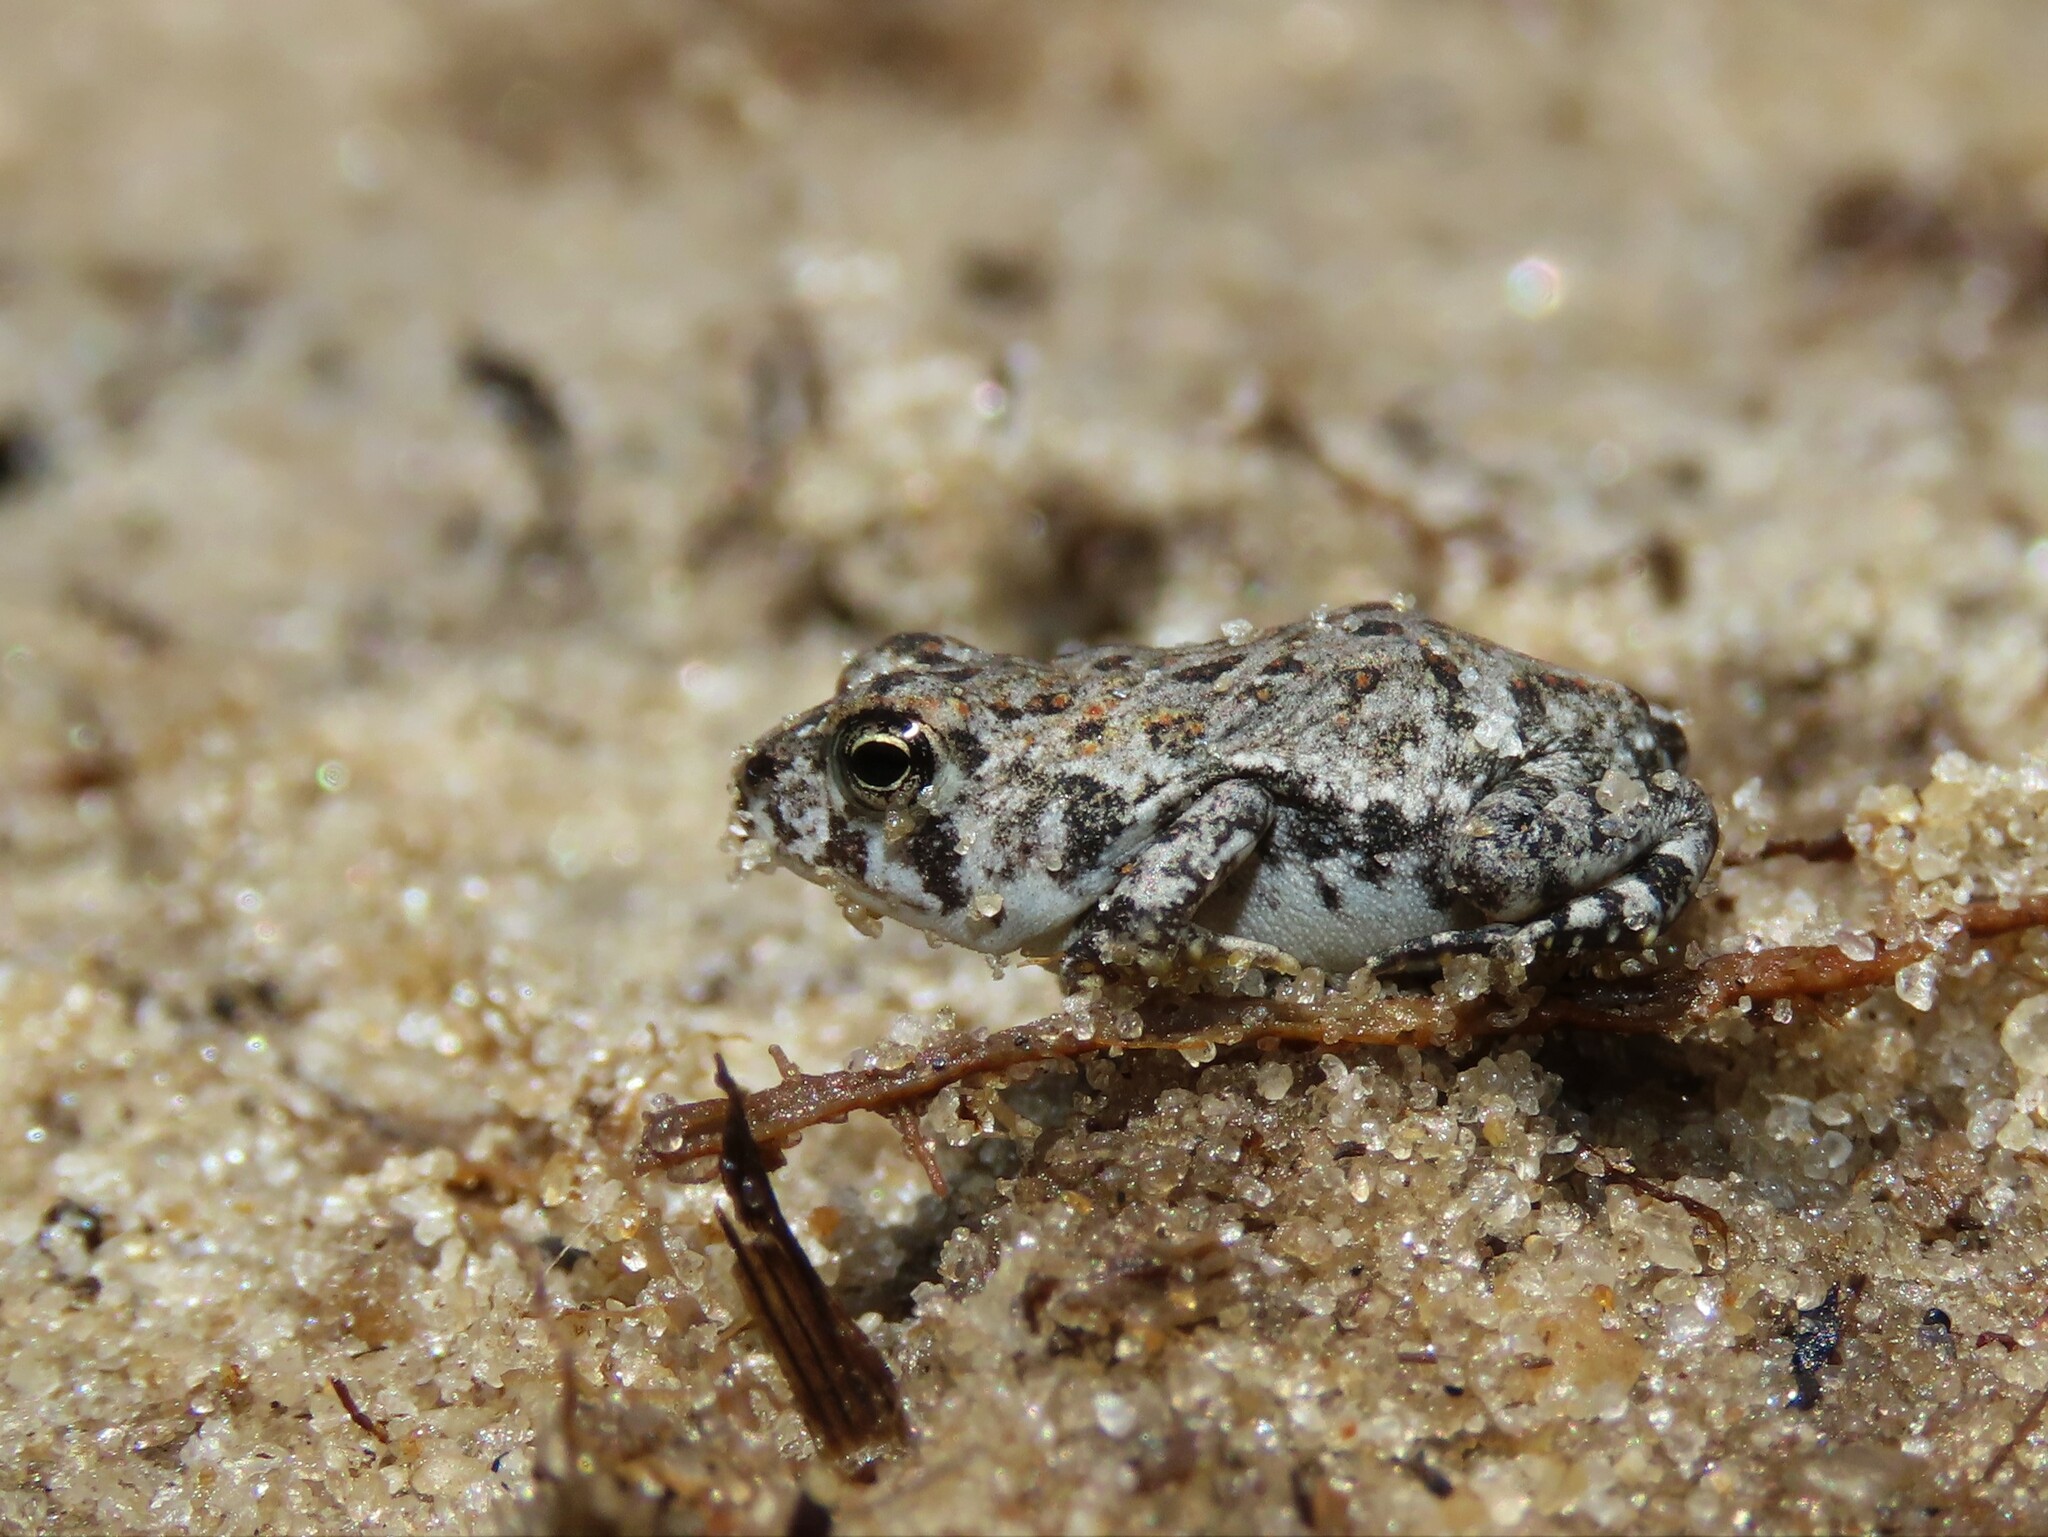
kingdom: Animalia
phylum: Chordata
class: Amphibia
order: Anura
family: Bufonidae
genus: Anaxyrus
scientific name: Anaxyrus terrestris
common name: Southern toad
